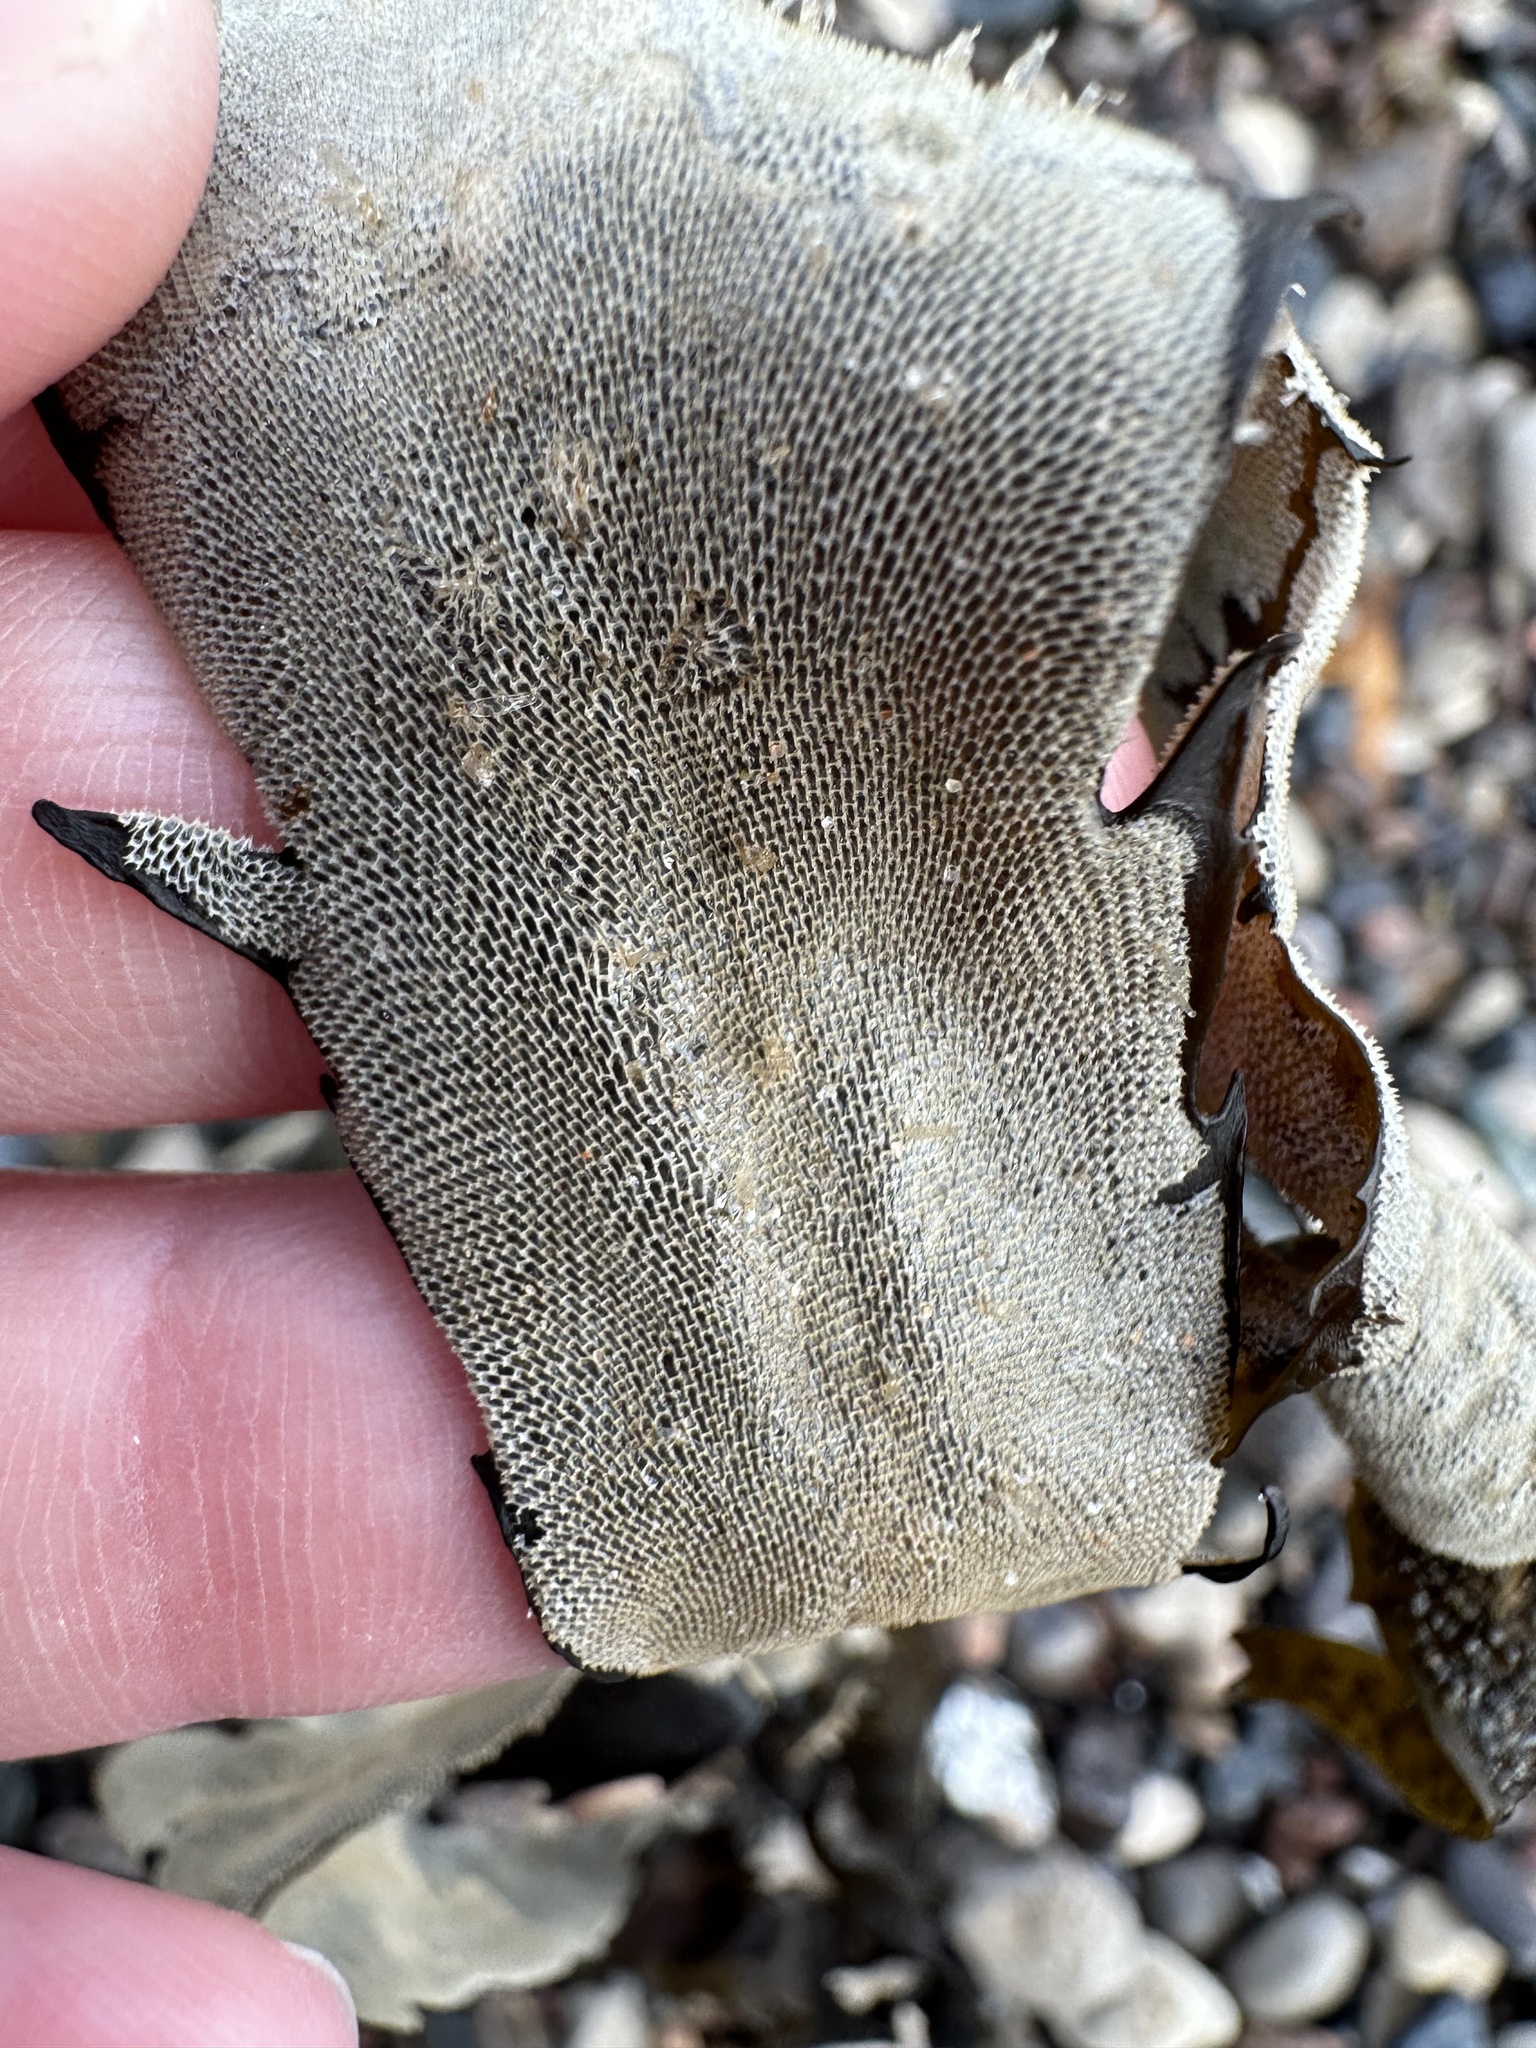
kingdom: Animalia
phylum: Bryozoa
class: Gymnolaemata
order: Cheilostomatida
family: Membraniporidae
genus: Membranipora
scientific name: Membranipora membranacea
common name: Sea mat
